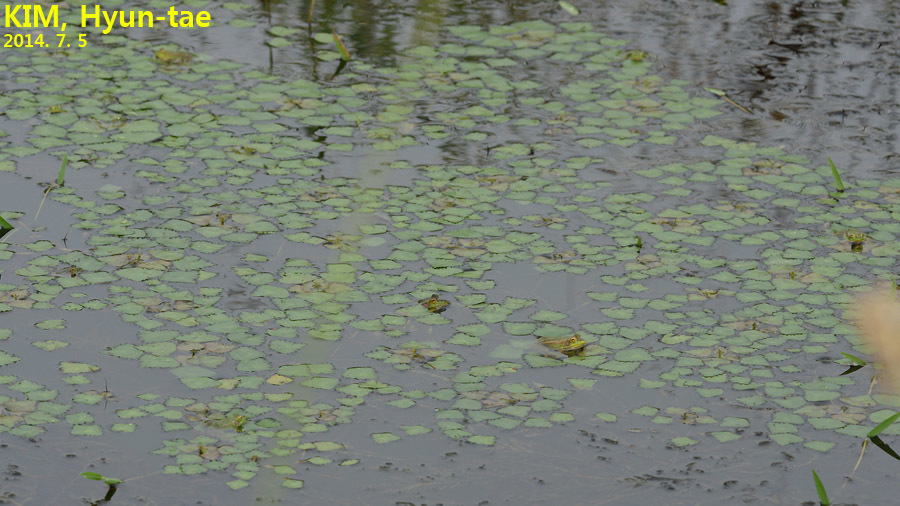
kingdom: Animalia
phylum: Chordata
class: Amphibia
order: Anura
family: Ranidae
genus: Pelophylax
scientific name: Pelophylax chosenicus
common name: Gold-spotted pond frog
